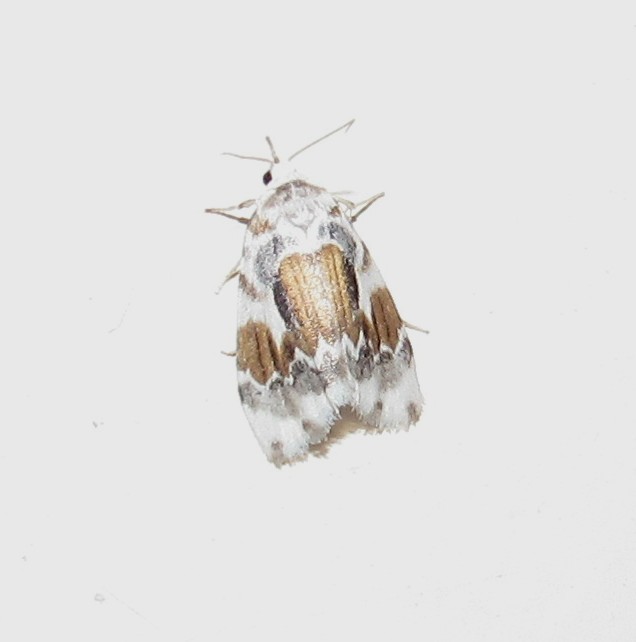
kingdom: Animalia
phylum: Arthropoda
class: Insecta
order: Lepidoptera
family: Erebidae
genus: Clemensia
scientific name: Clemensia marmorata
